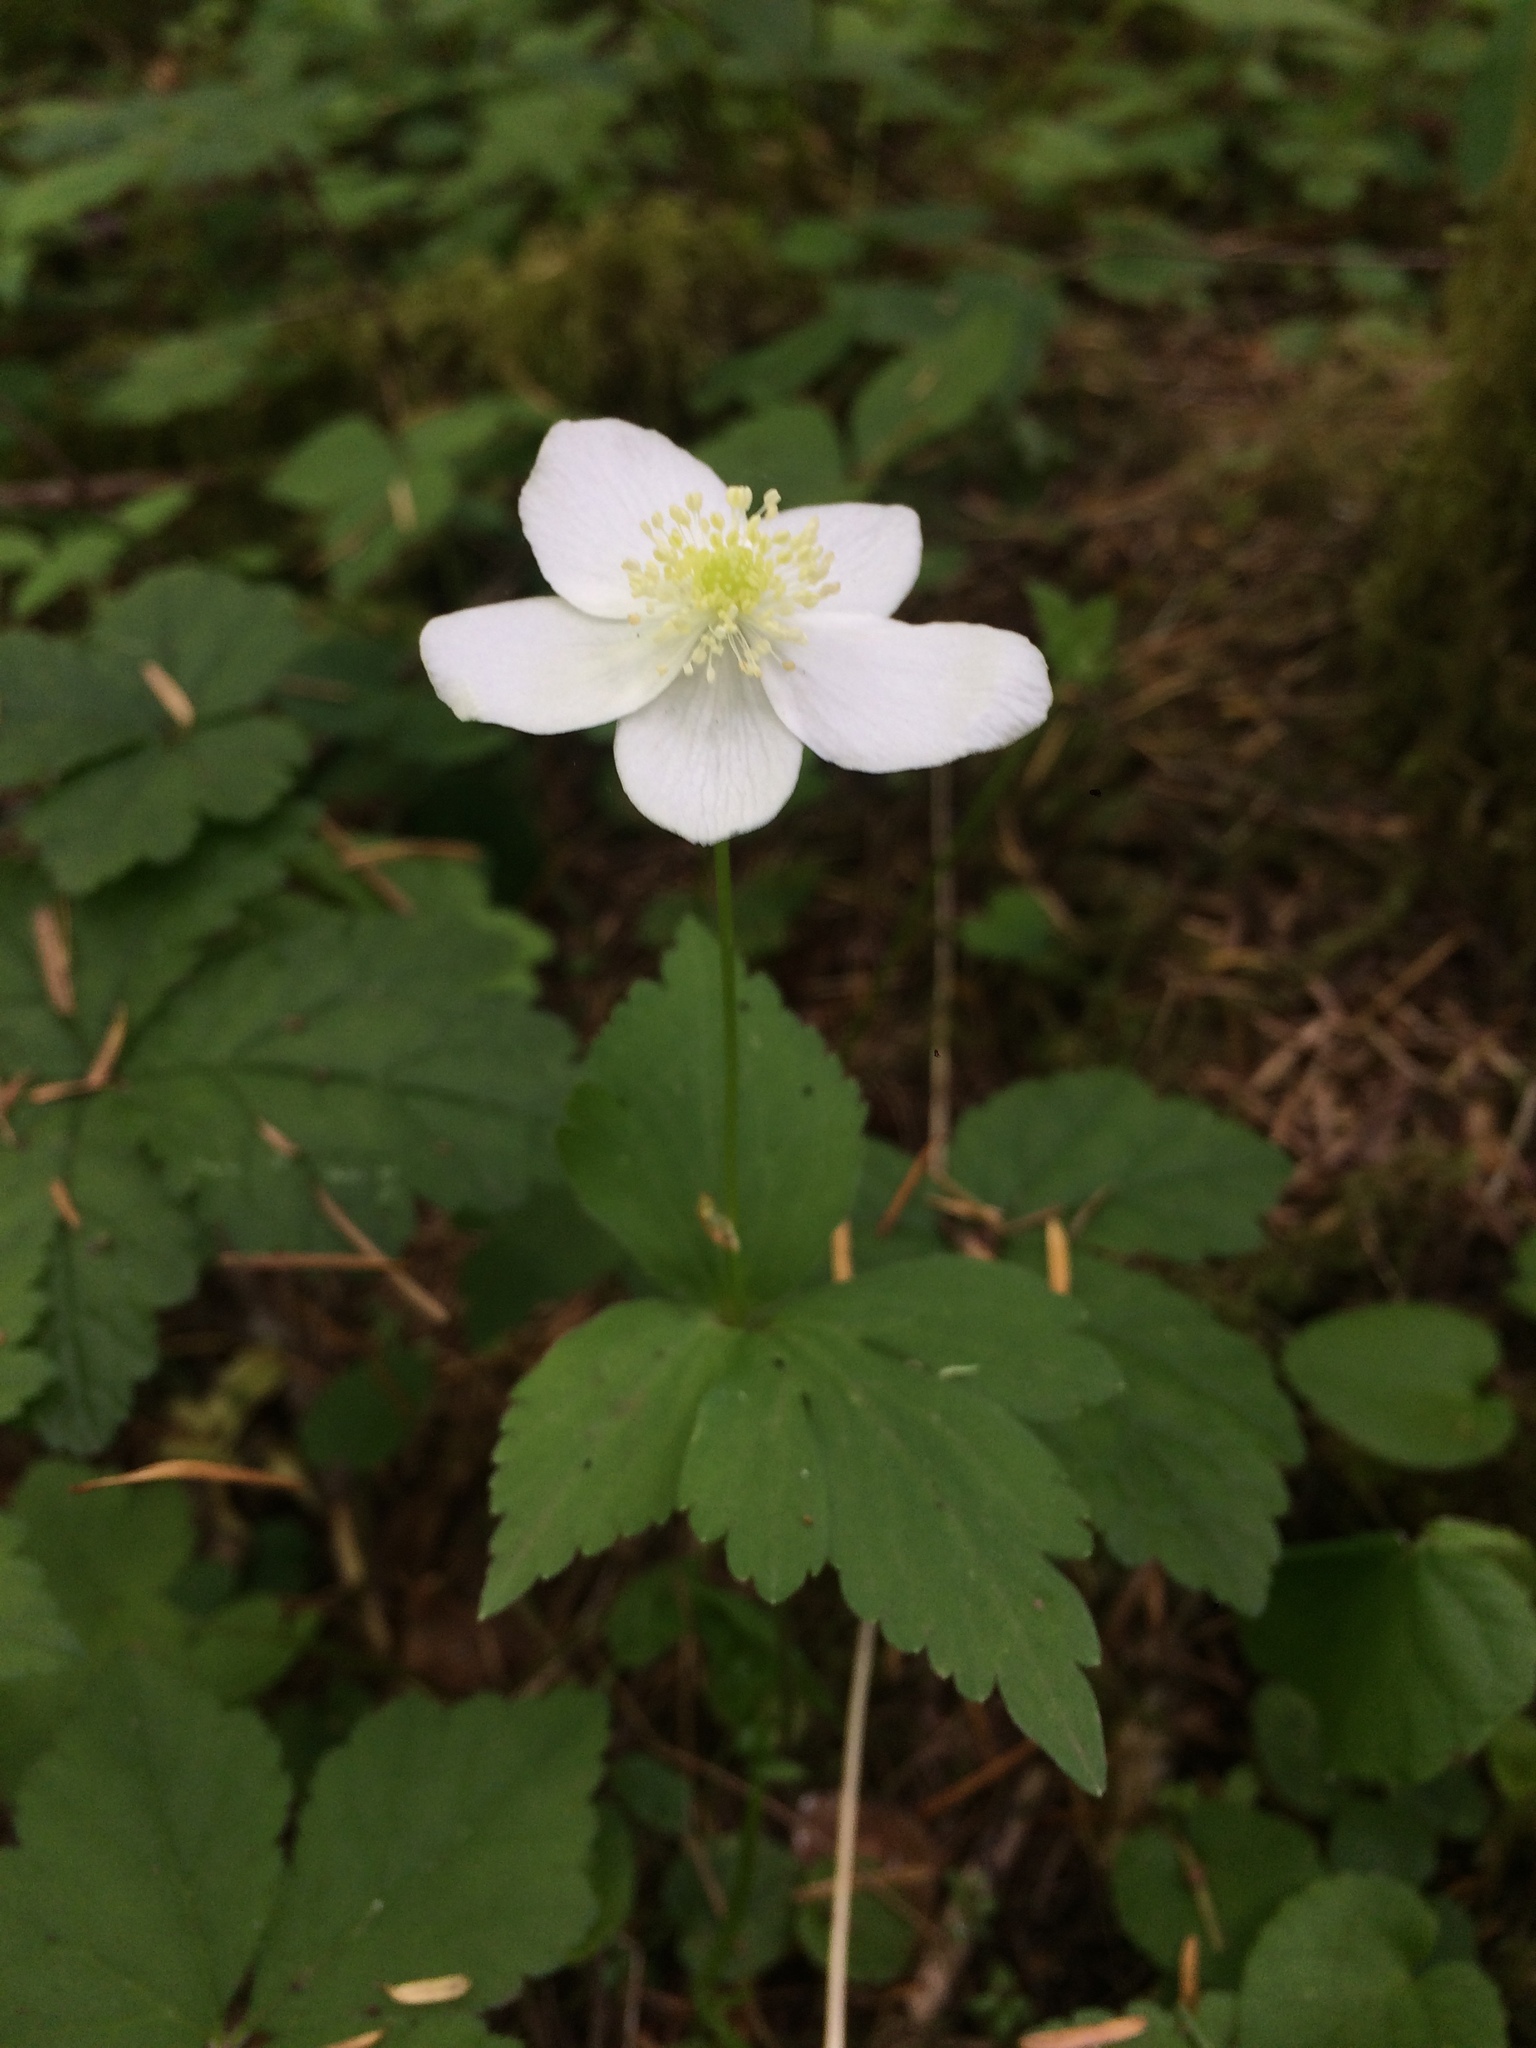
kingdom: Plantae
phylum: Tracheophyta
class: Magnoliopsida
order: Ranunculales
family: Ranunculaceae
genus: Anemonastrum
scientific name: Anemonastrum deltoideum
